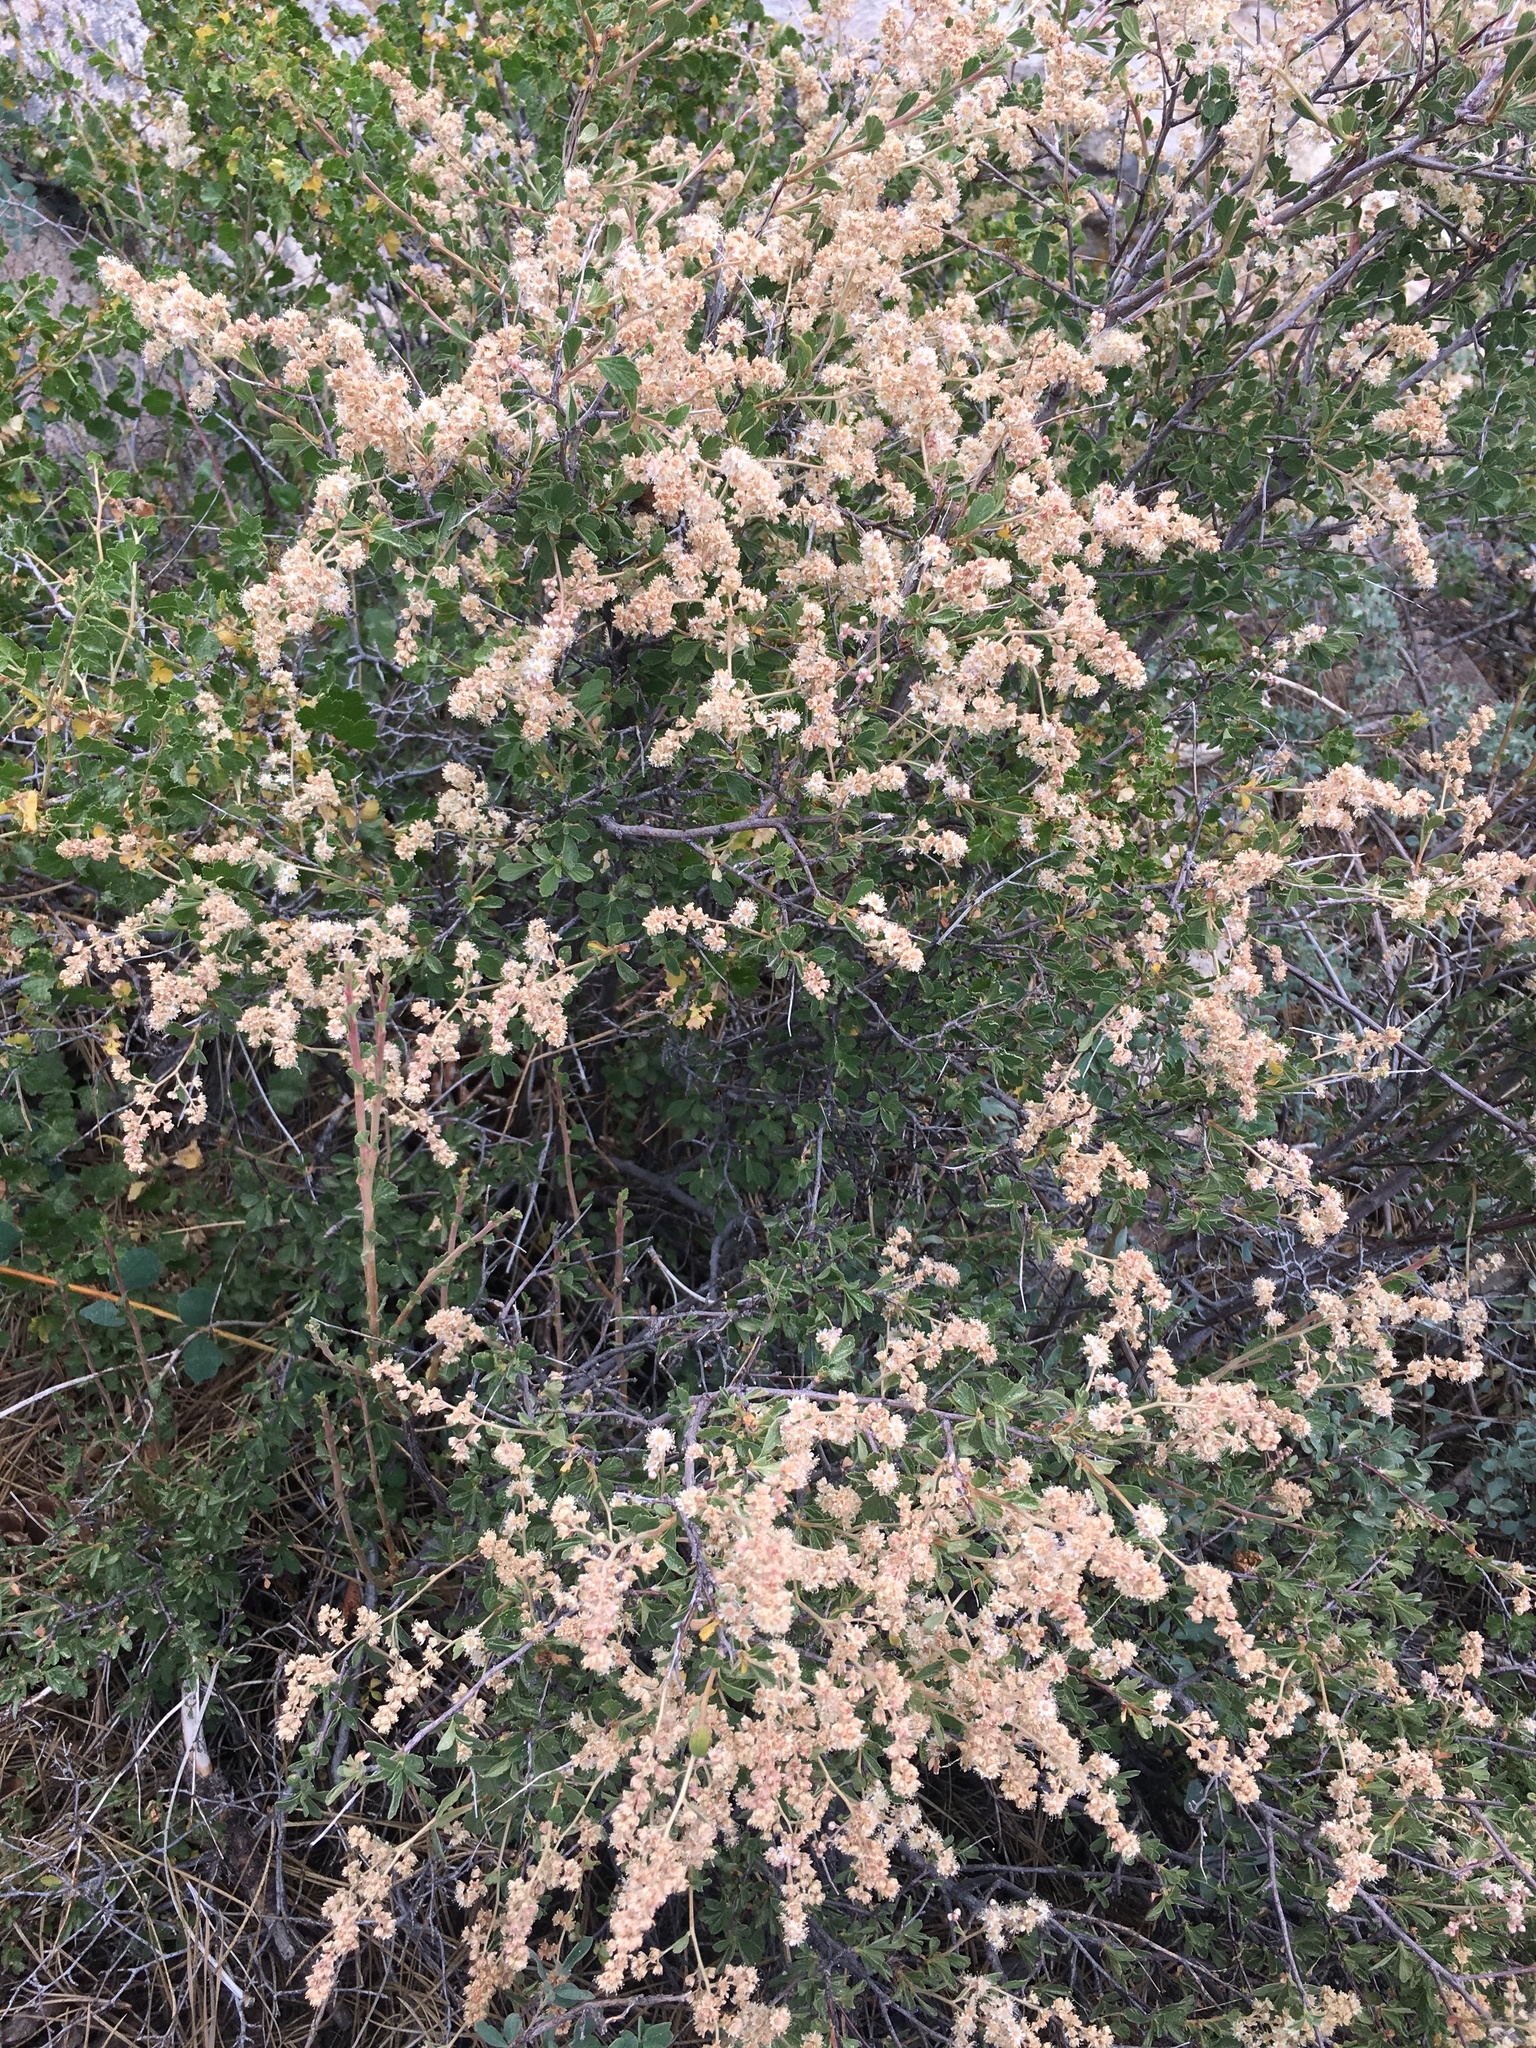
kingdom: Plantae
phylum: Tracheophyta
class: Magnoliopsida
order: Rosales
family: Rosaceae
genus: Holodiscus
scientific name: Holodiscus discolor
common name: Oceanspray
